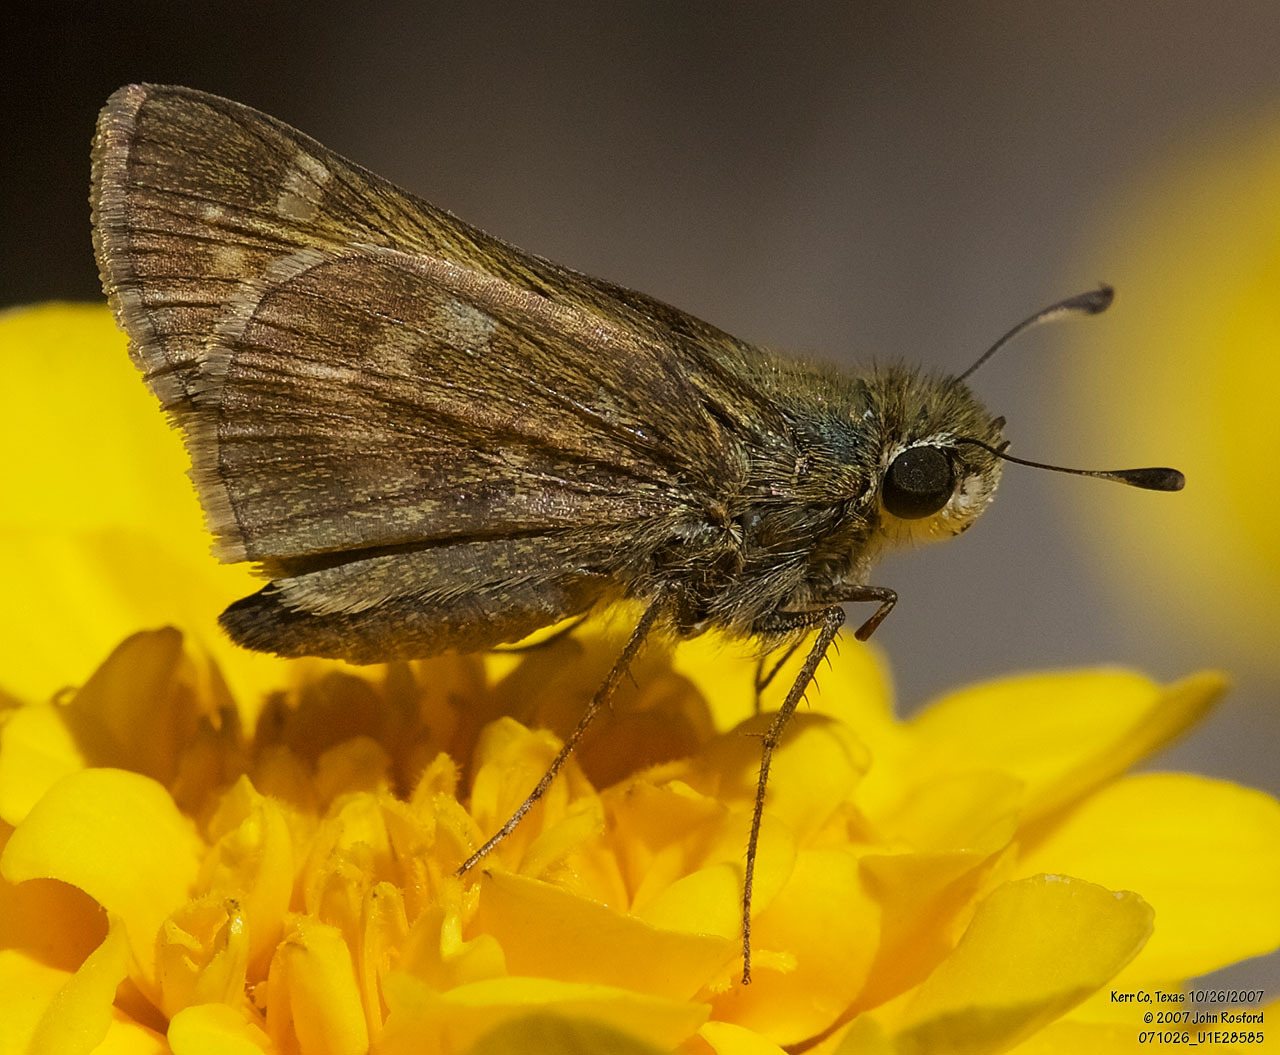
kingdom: Animalia
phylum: Arthropoda
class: Insecta
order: Lepidoptera
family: Hesperiidae
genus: Atalopedes
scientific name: Atalopedes
